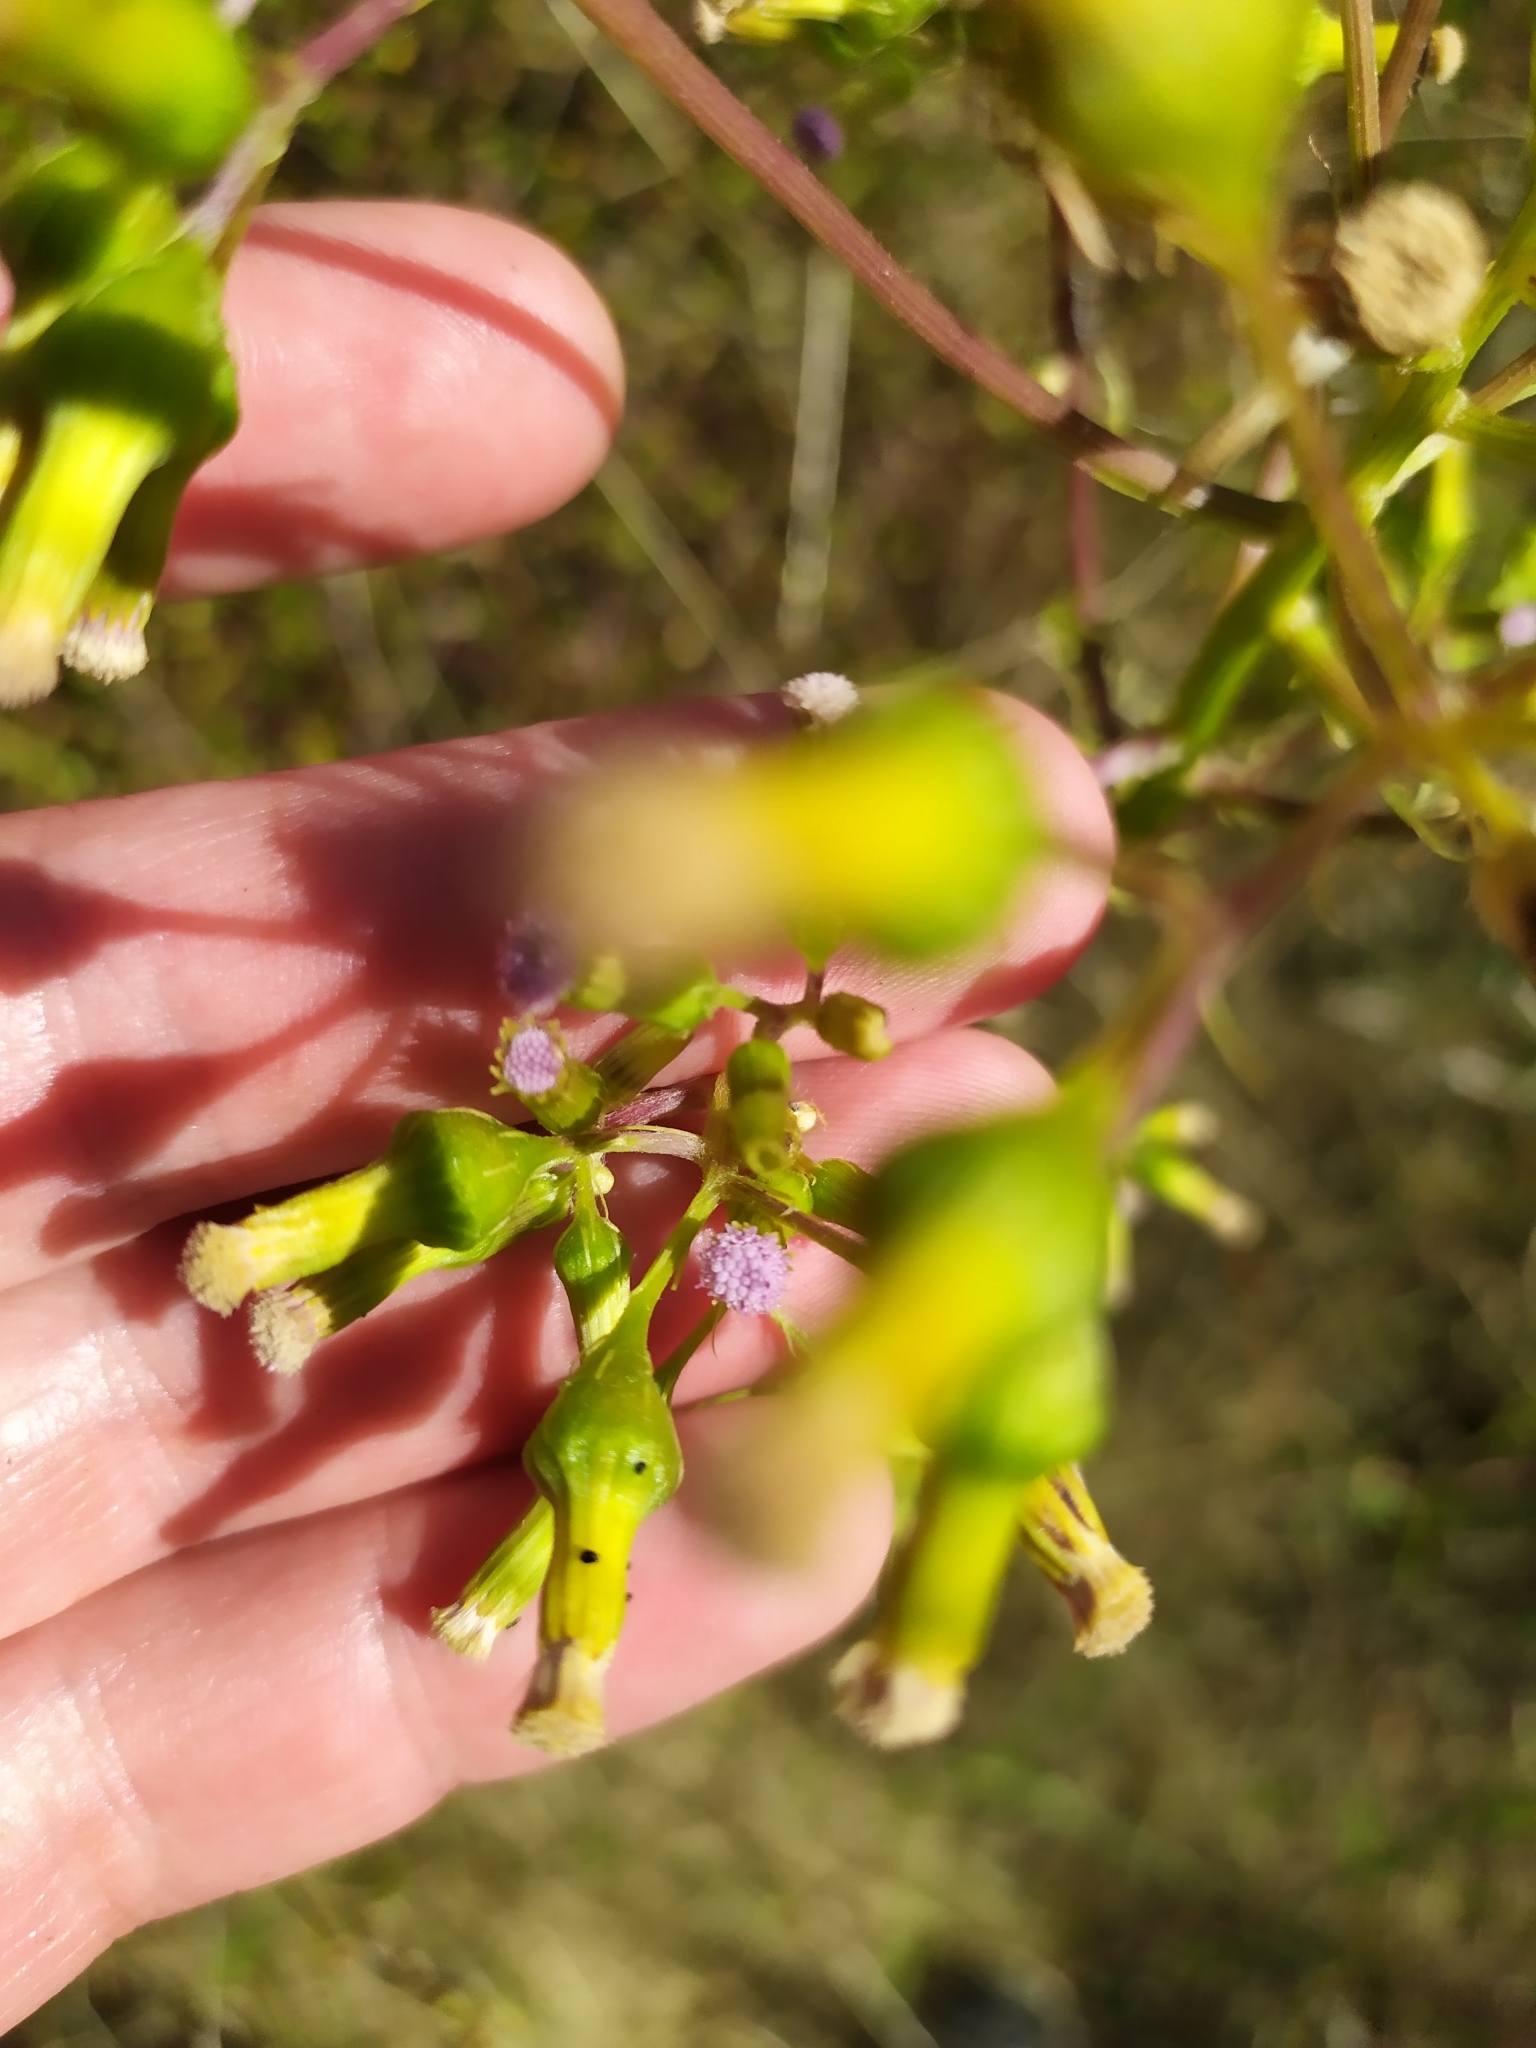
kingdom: Plantae
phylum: Tracheophyta
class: Magnoliopsida
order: Asterales
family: Asteraceae
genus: Erechtites
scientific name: Erechtites hieraciifolius
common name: American burnweed
